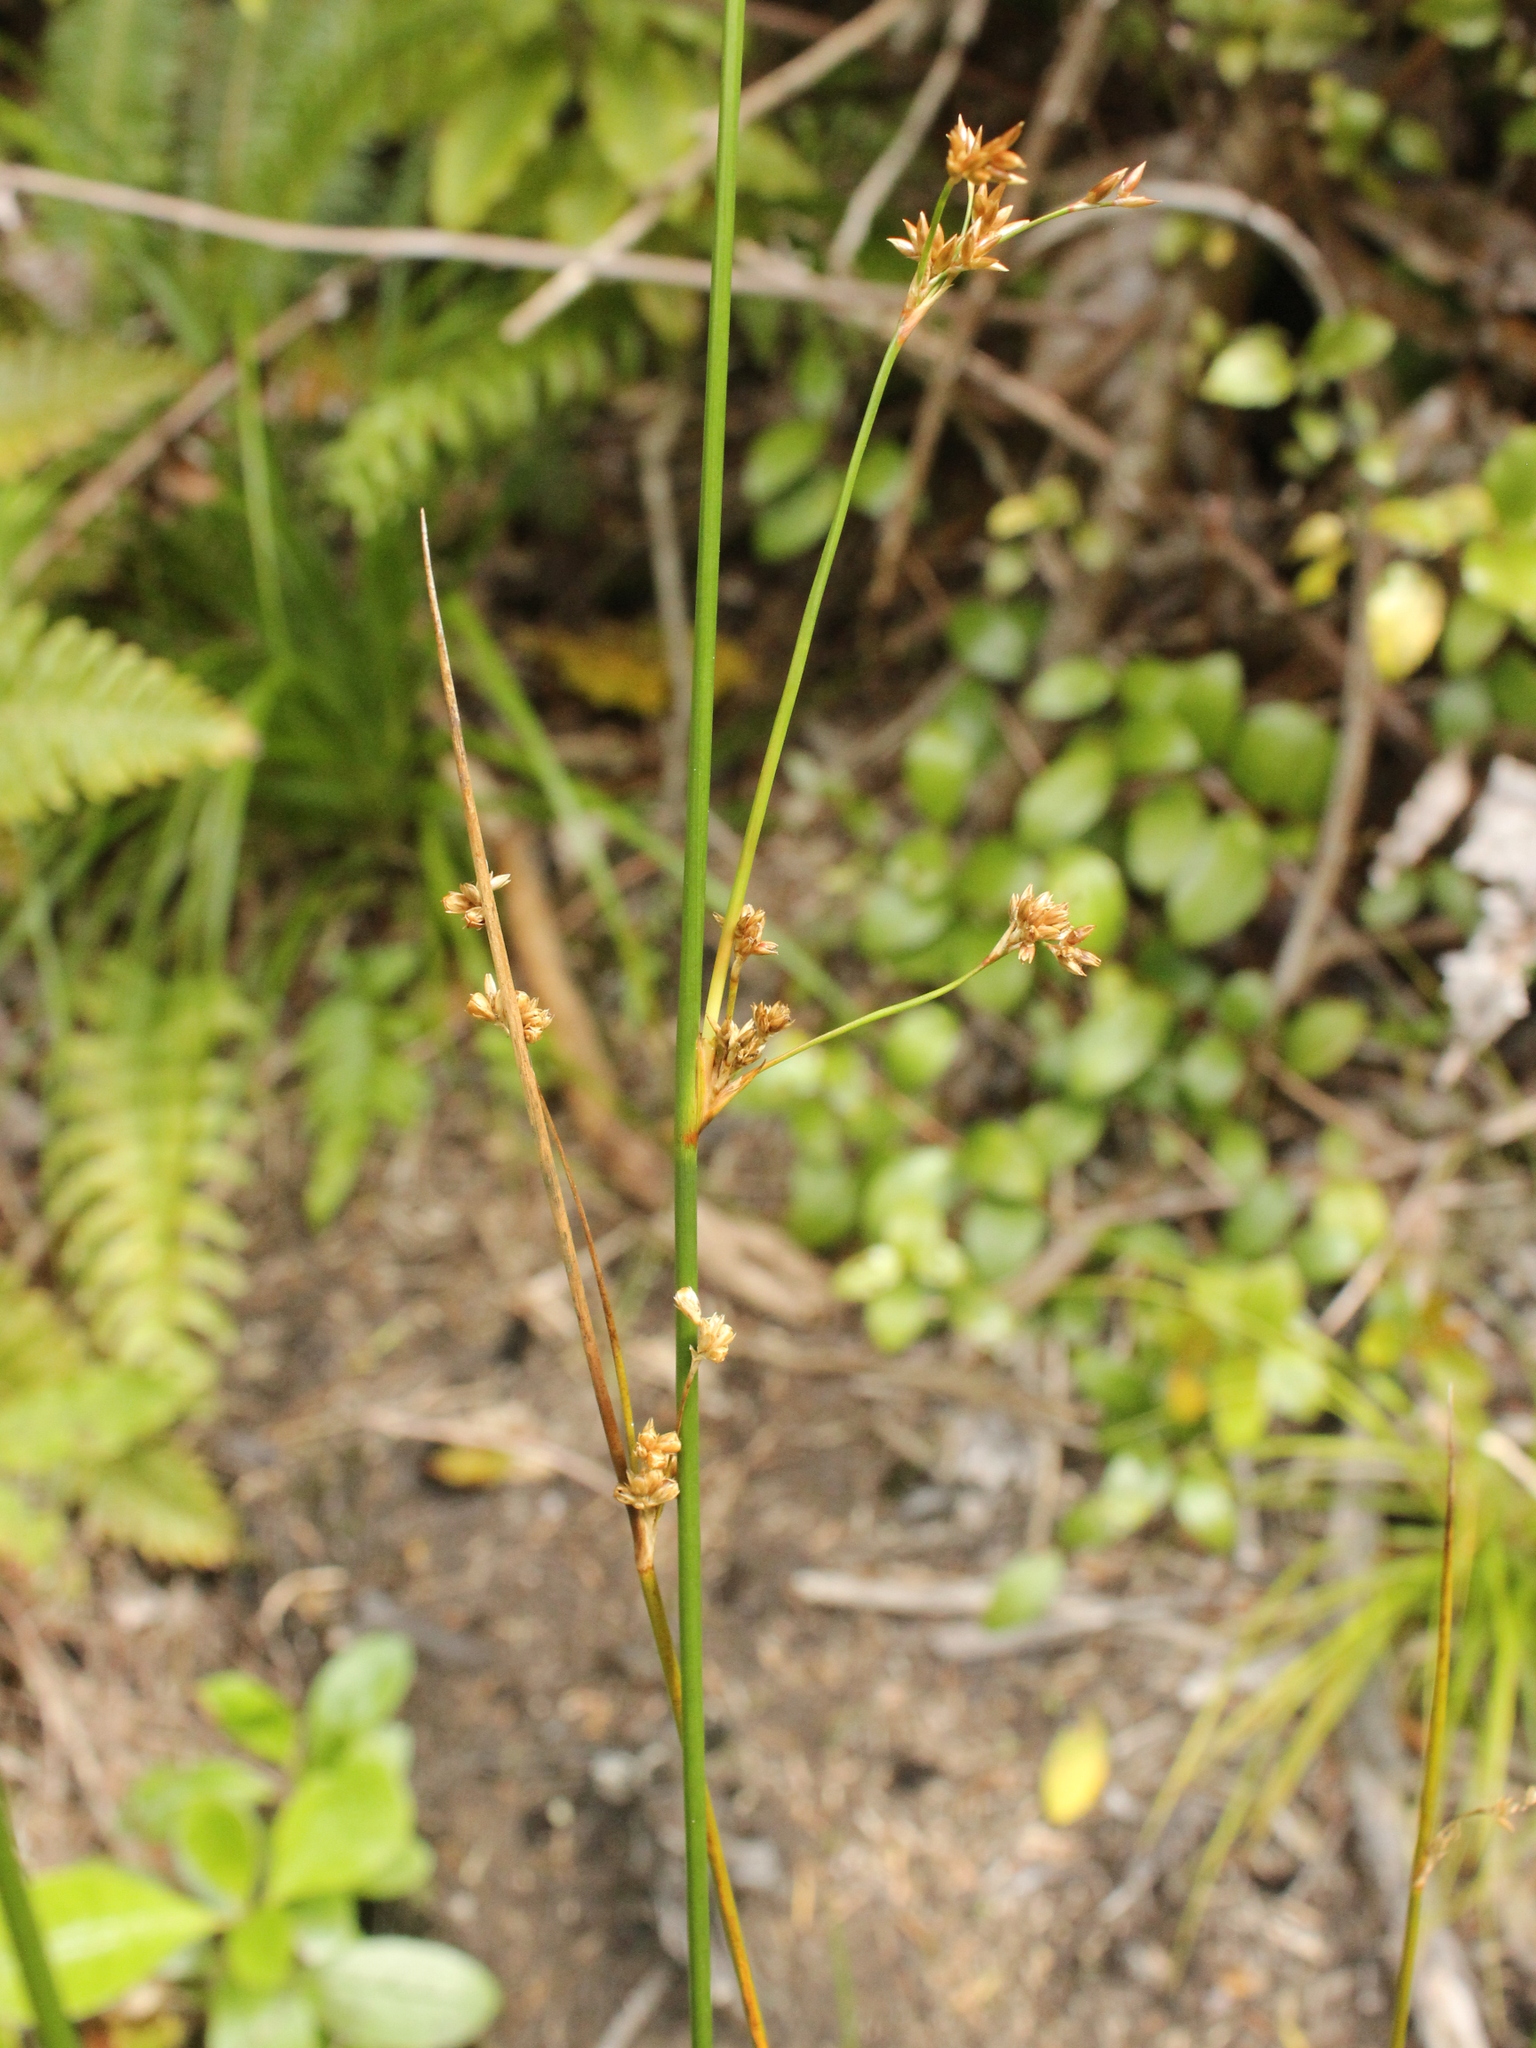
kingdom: Plantae
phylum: Tracheophyta
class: Liliopsida
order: Poales
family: Juncaceae
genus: Juncus
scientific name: Juncus edgariae
